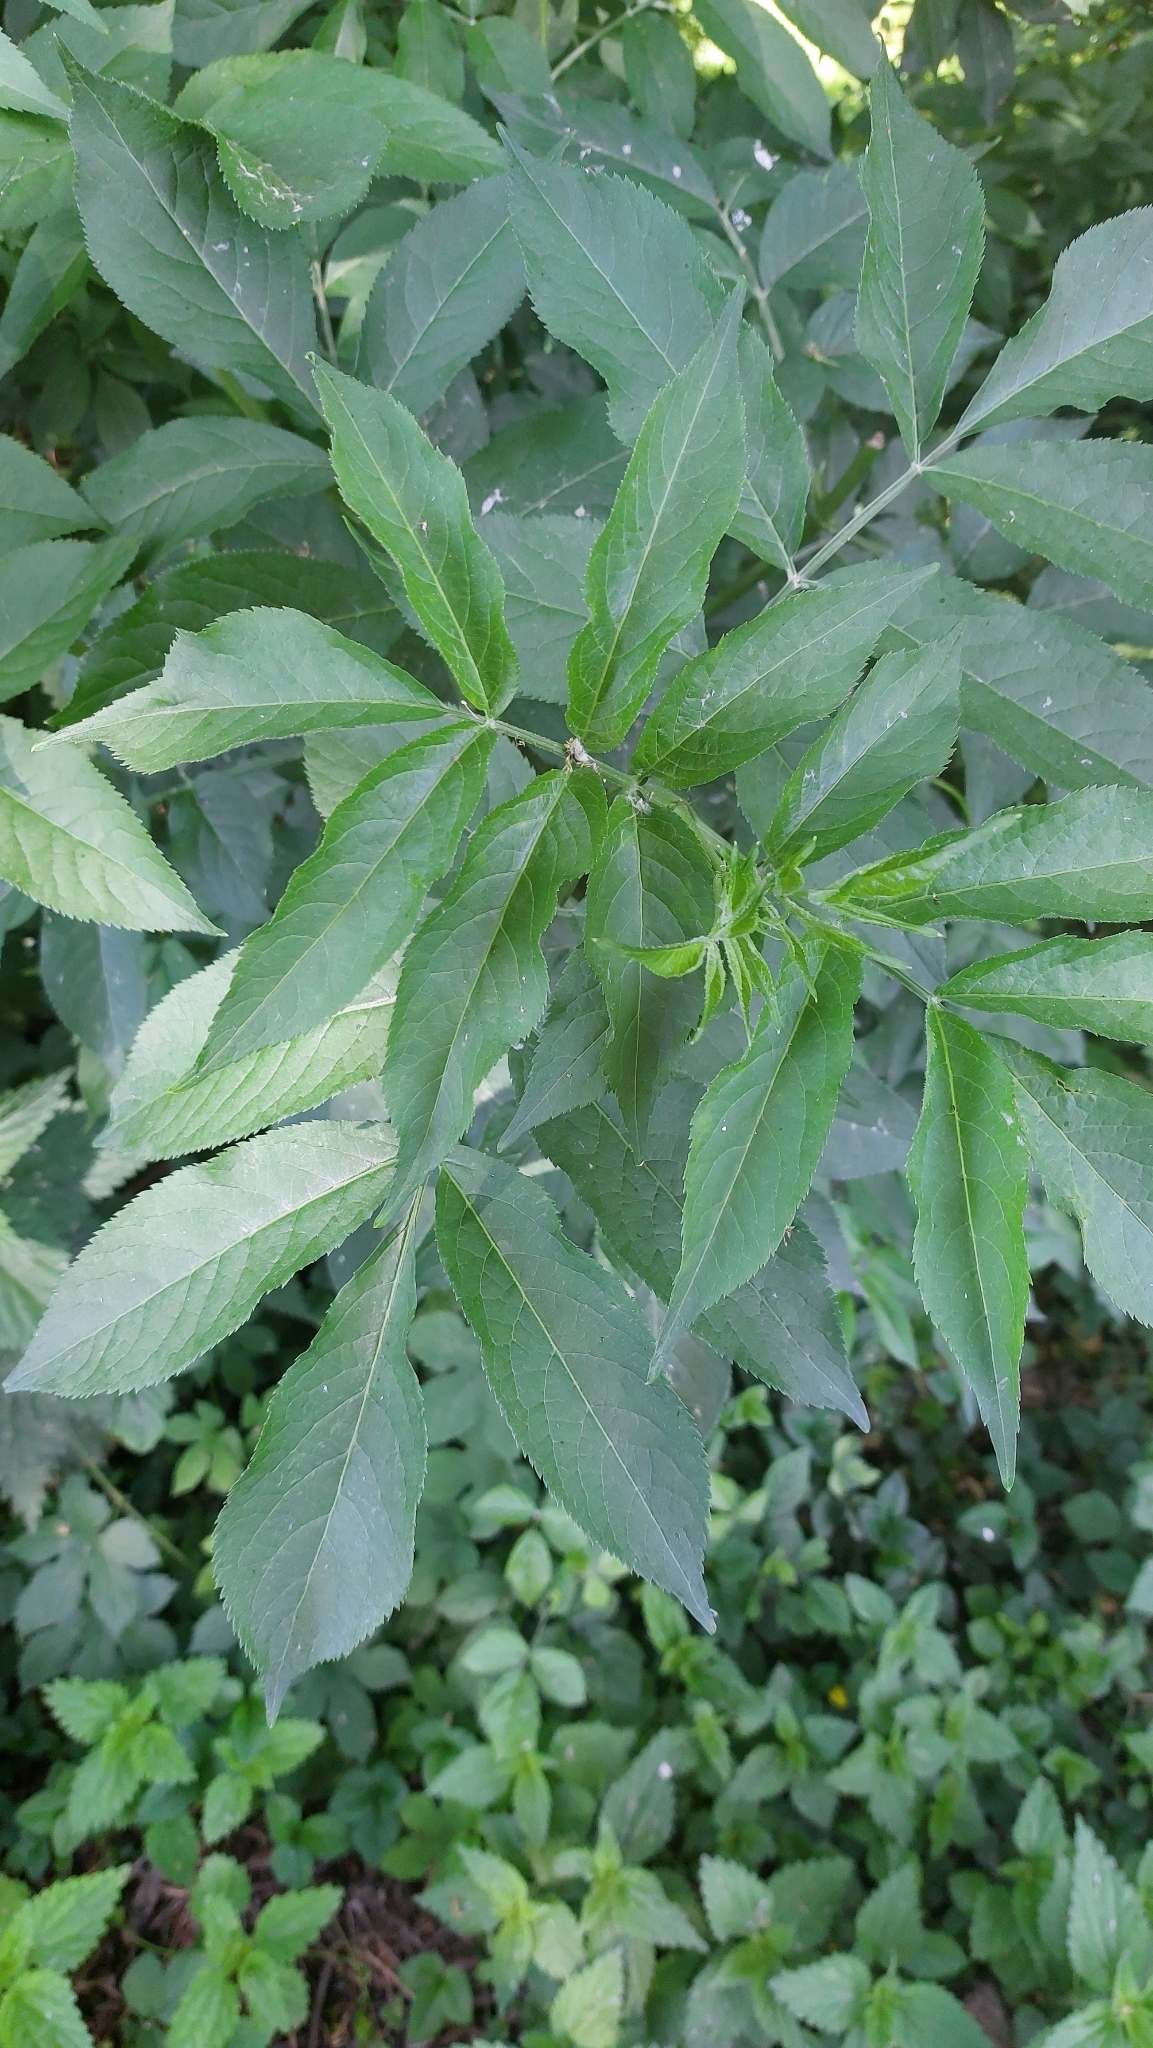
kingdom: Plantae
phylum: Tracheophyta
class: Magnoliopsida
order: Dipsacales
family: Viburnaceae
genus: Sambucus
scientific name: Sambucus nigra
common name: Elder
